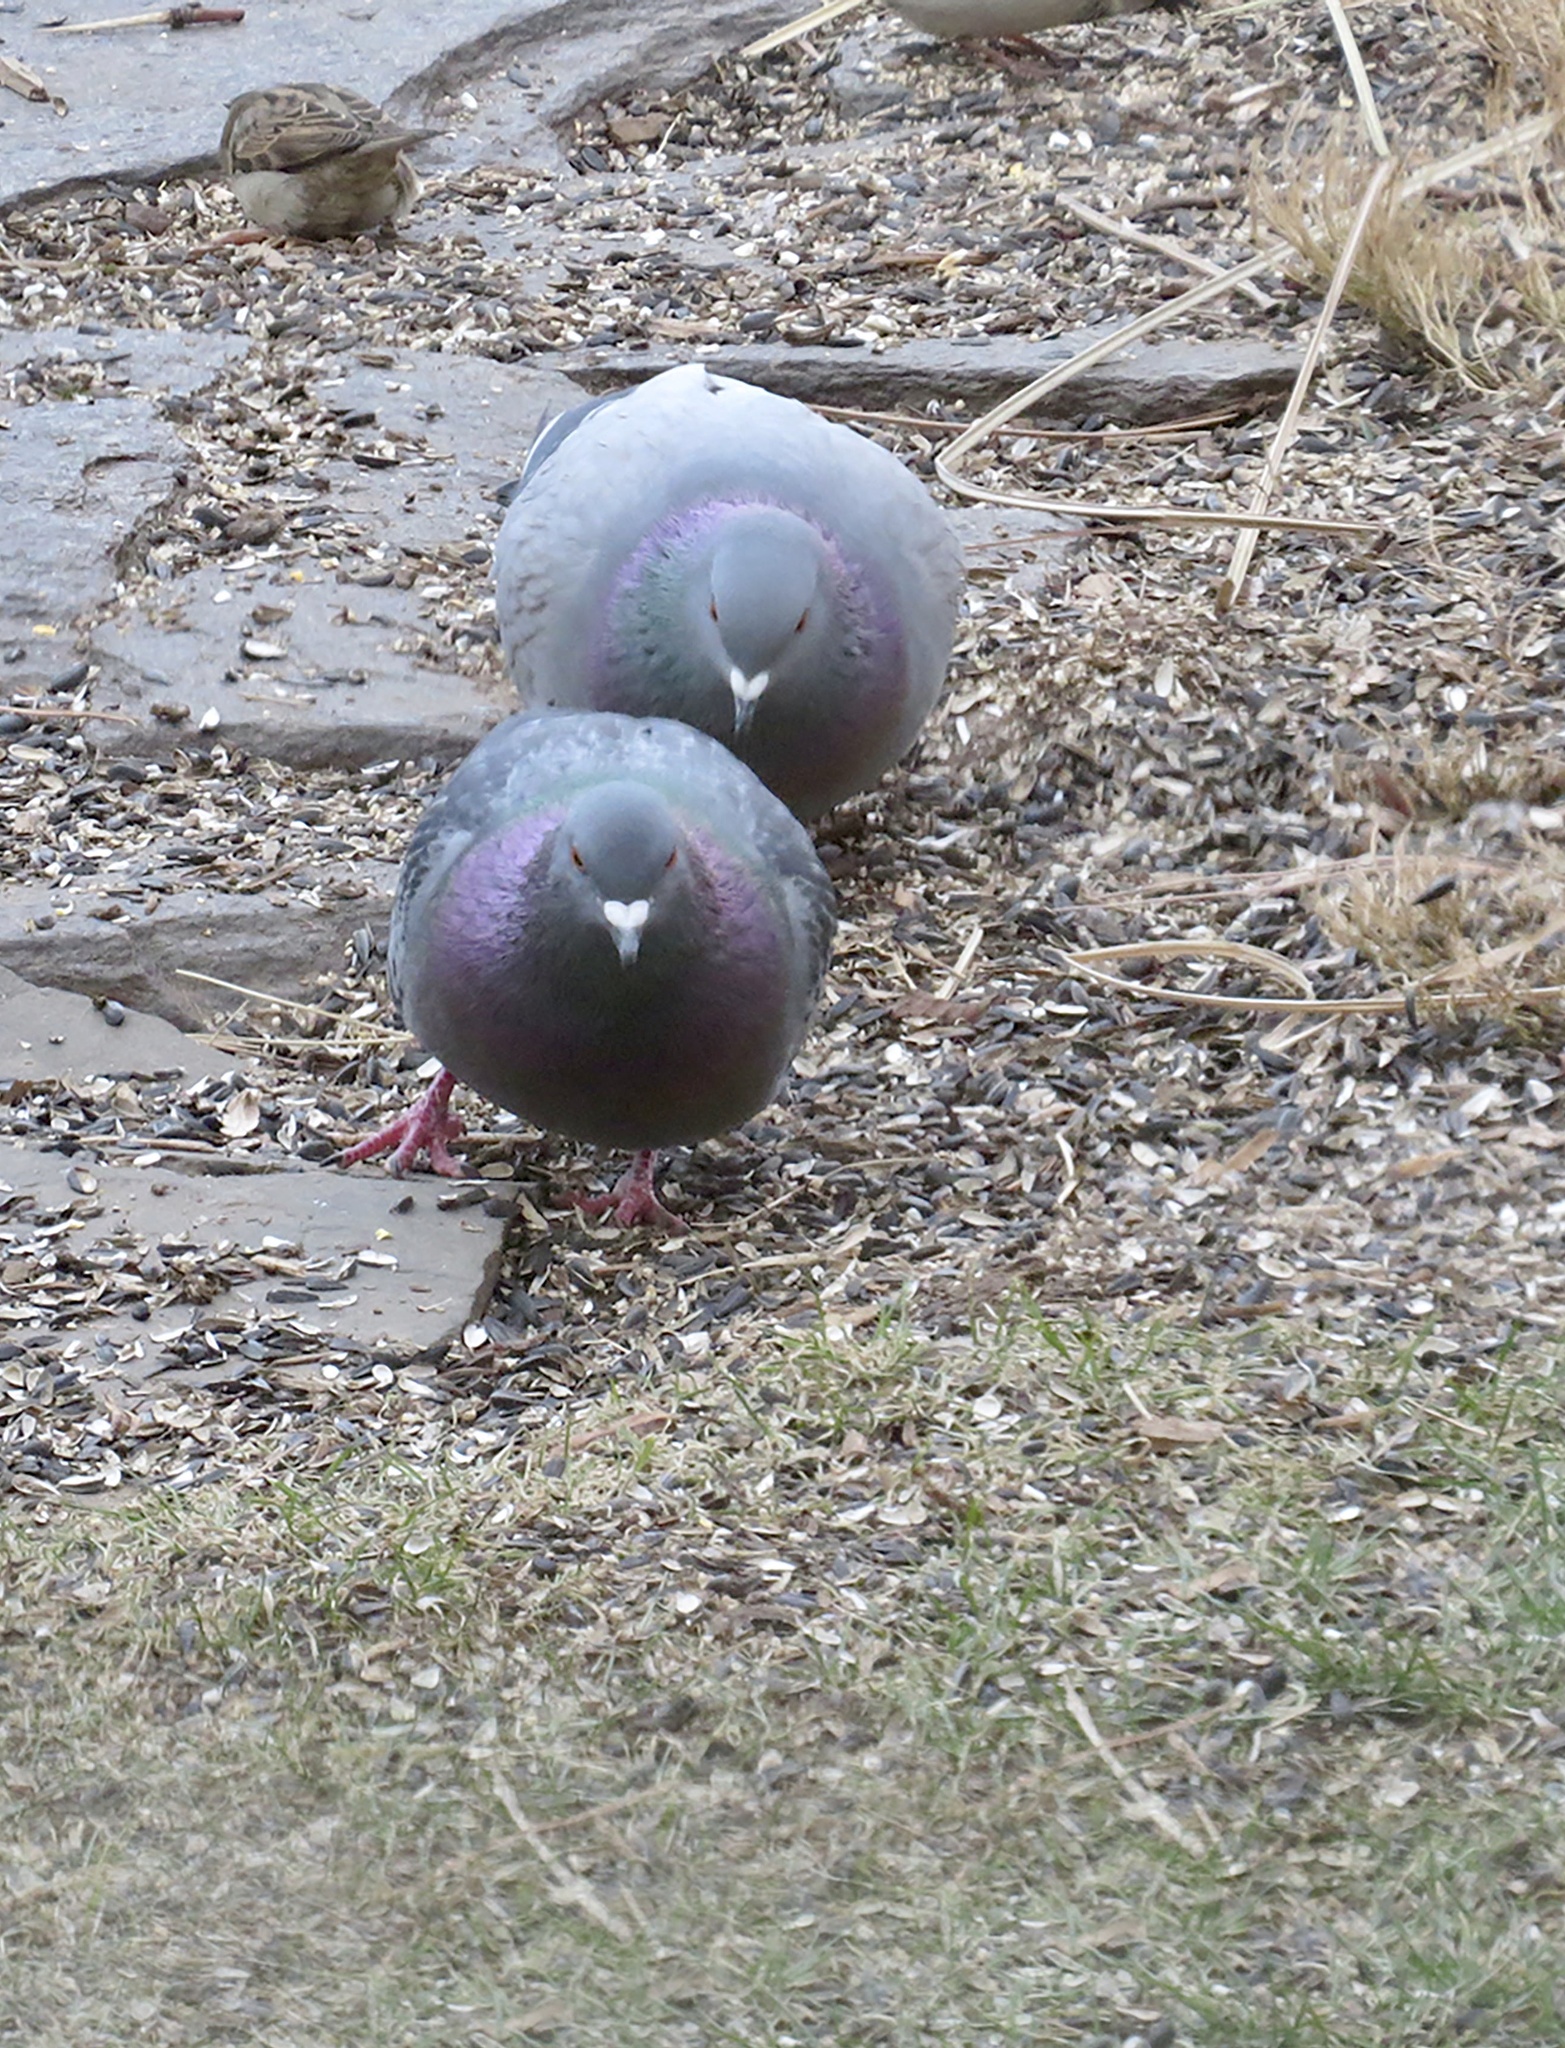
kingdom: Animalia
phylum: Chordata
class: Aves
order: Columbiformes
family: Columbidae
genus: Columba
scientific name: Columba livia
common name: Rock pigeon
